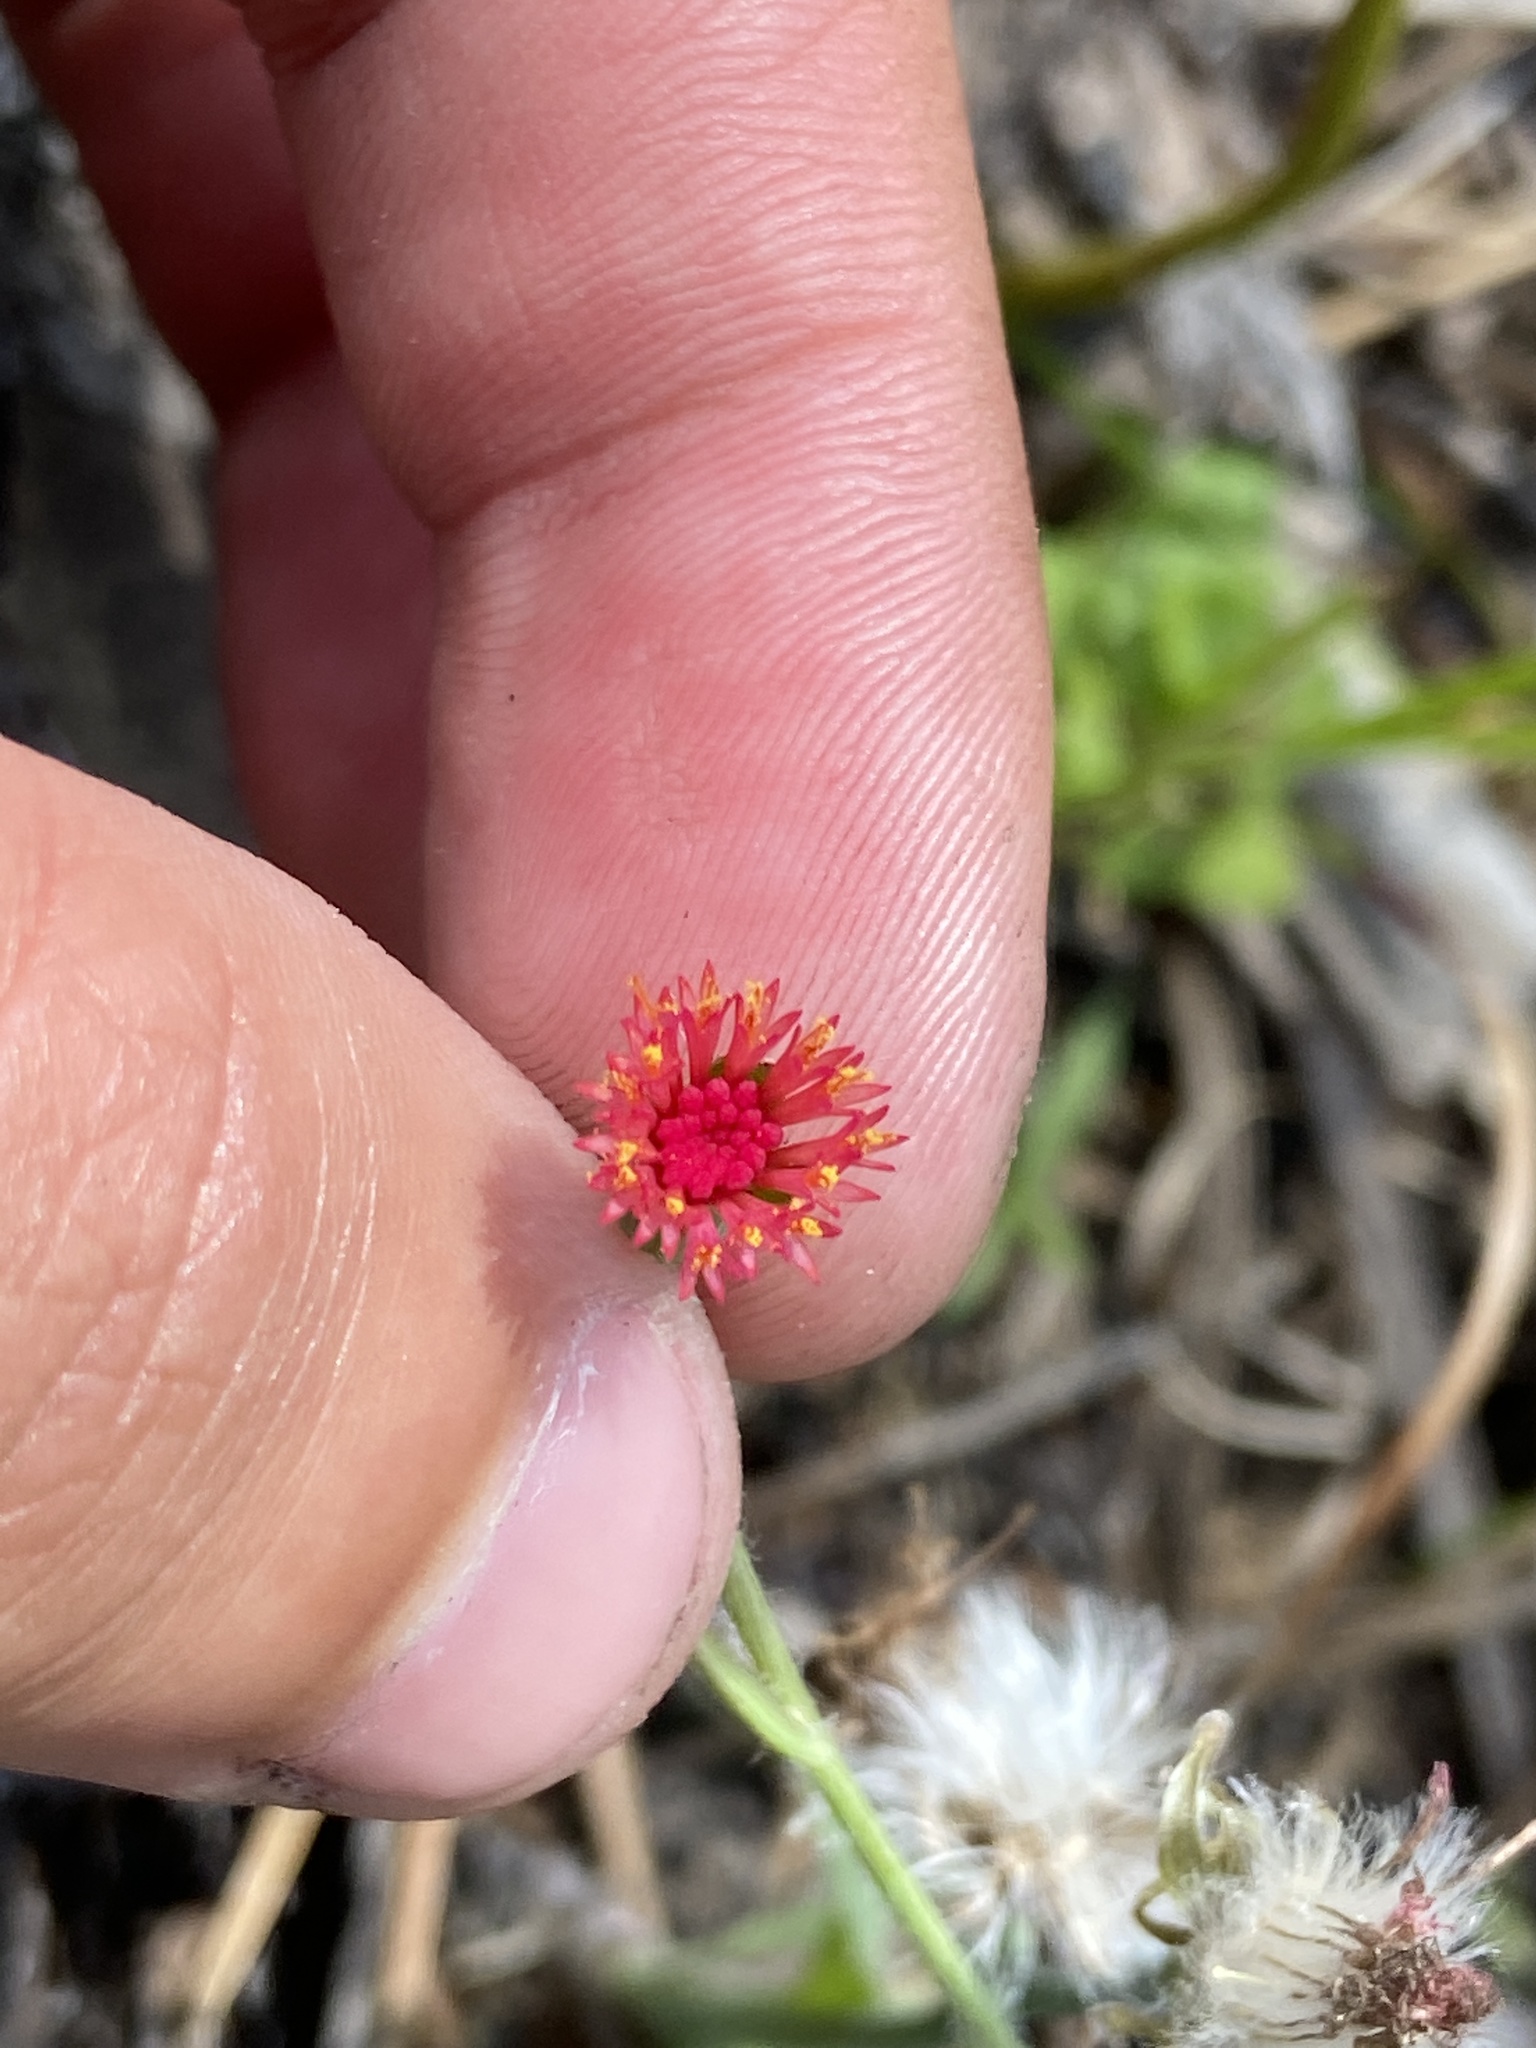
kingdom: Plantae
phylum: Tracheophyta
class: Magnoliopsida
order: Asterales
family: Asteraceae
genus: Emilia
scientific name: Emilia fosbergii
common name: Florida tasselflower
